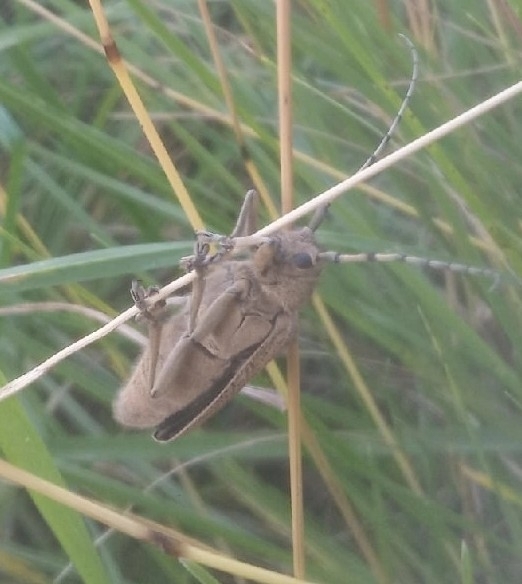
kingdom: Animalia
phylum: Arthropoda
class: Insecta
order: Coleoptera
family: Cerambycidae
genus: Saperda
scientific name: Saperda carcharias
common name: Poplar borer
